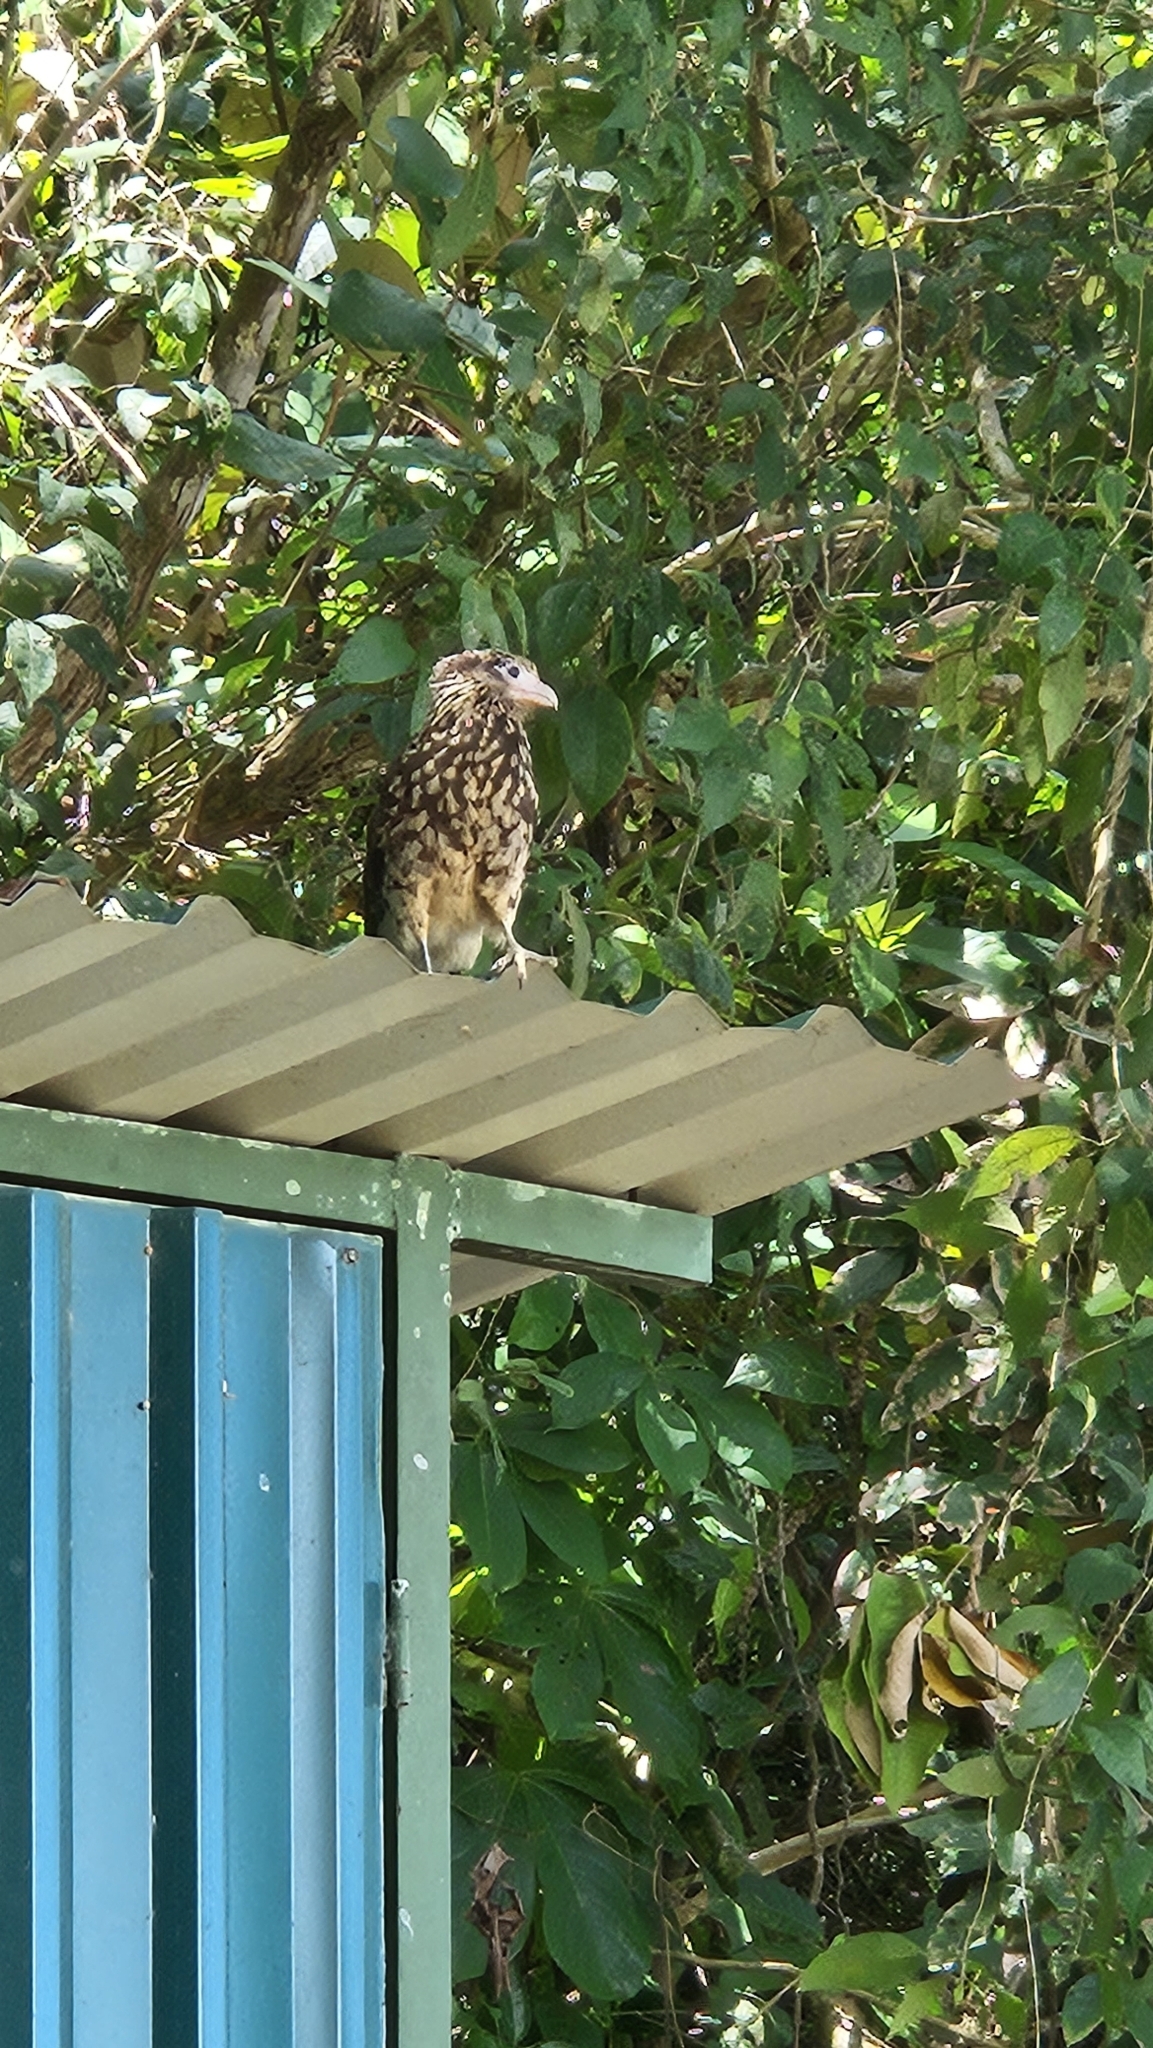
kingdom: Animalia
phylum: Chordata
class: Aves
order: Falconiformes
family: Falconidae
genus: Daptrius
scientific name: Daptrius
